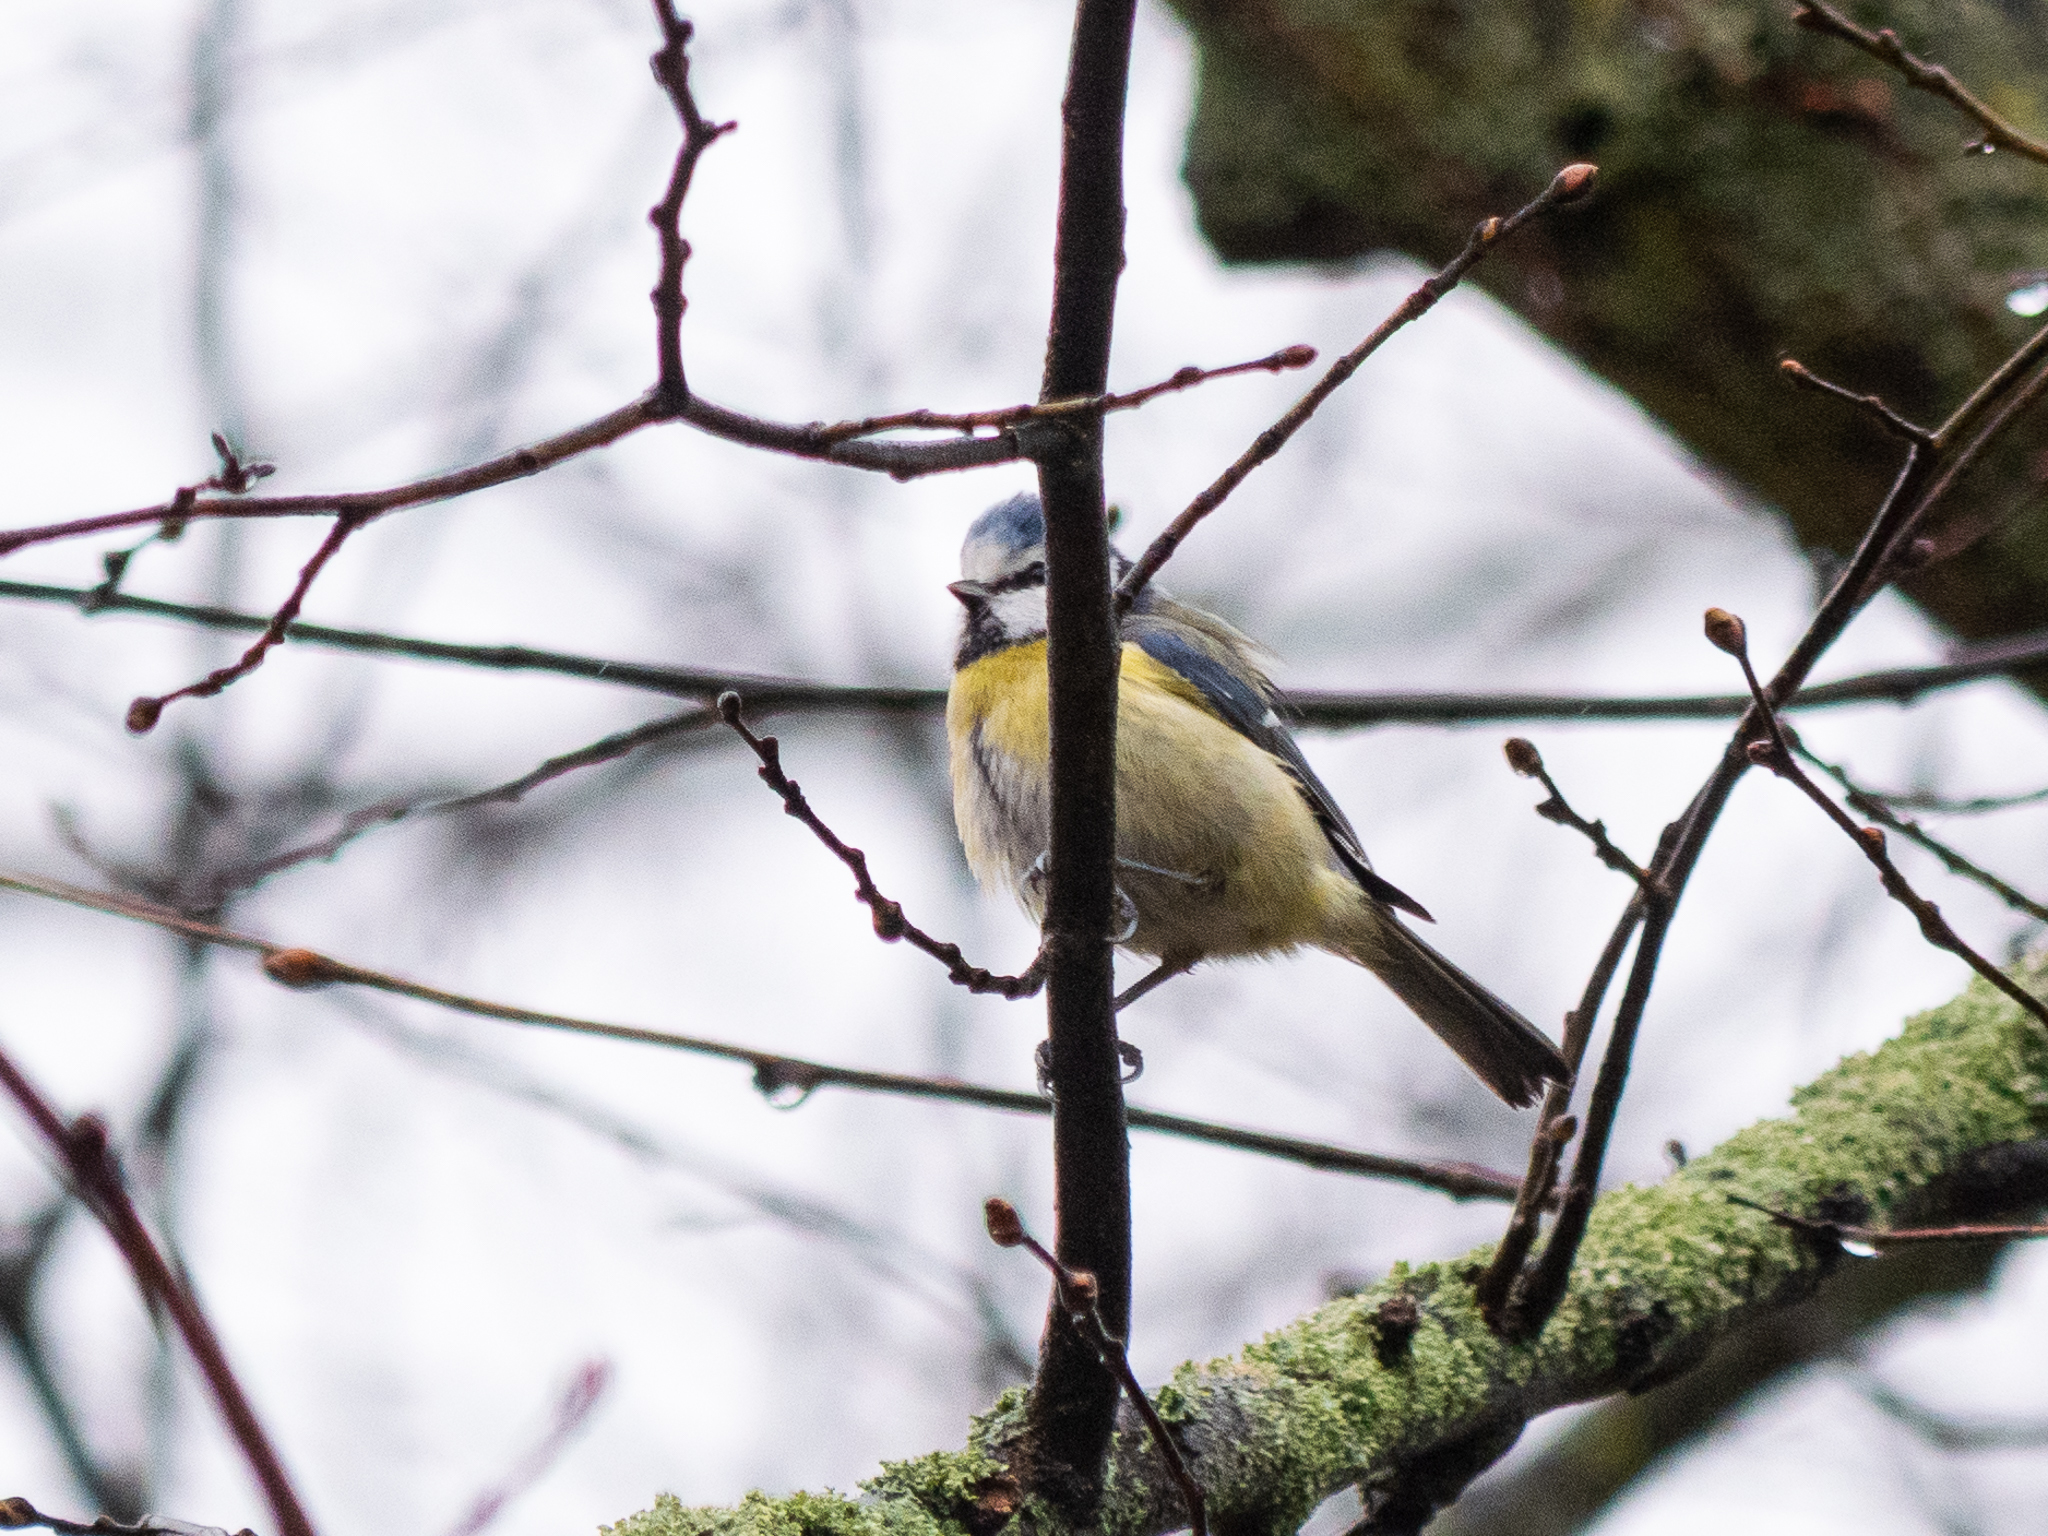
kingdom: Animalia
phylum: Chordata
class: Aves
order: Passeriformes
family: Paridae
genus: Cyanistes
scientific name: Cyanistes caeruleus
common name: Eurasian blue tit
